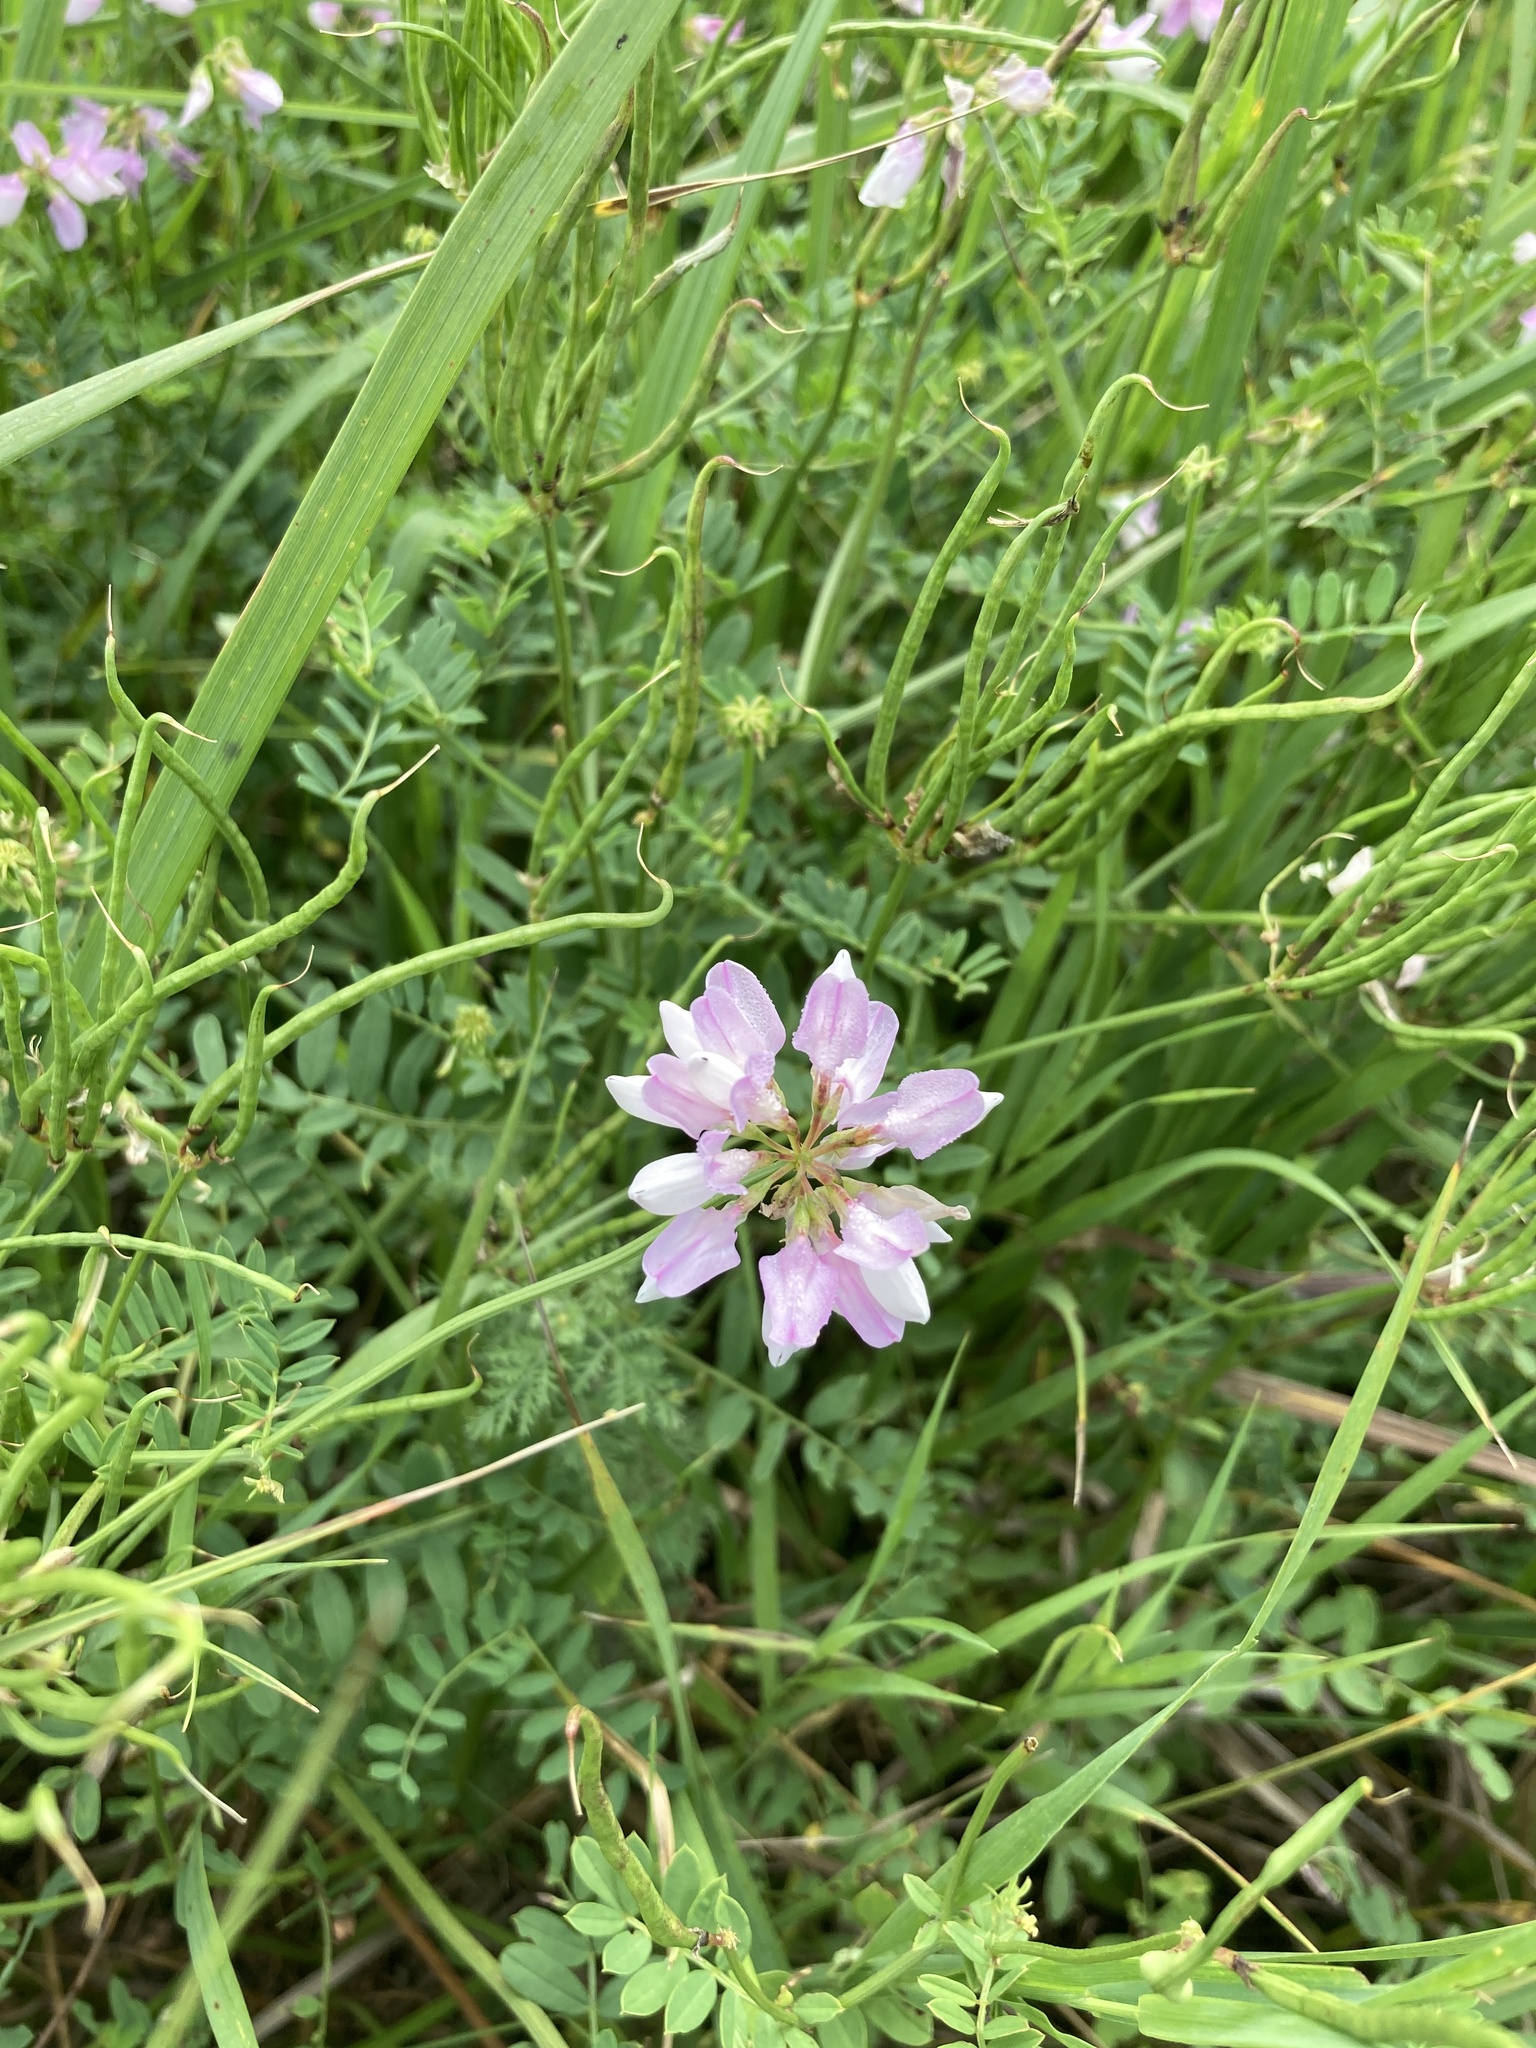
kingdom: Plantae
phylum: Tracheophyta
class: Magnoliopsida
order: Fabales
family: Fabaceae
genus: Coronilla
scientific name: Coronilla varia
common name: Crownvetch
